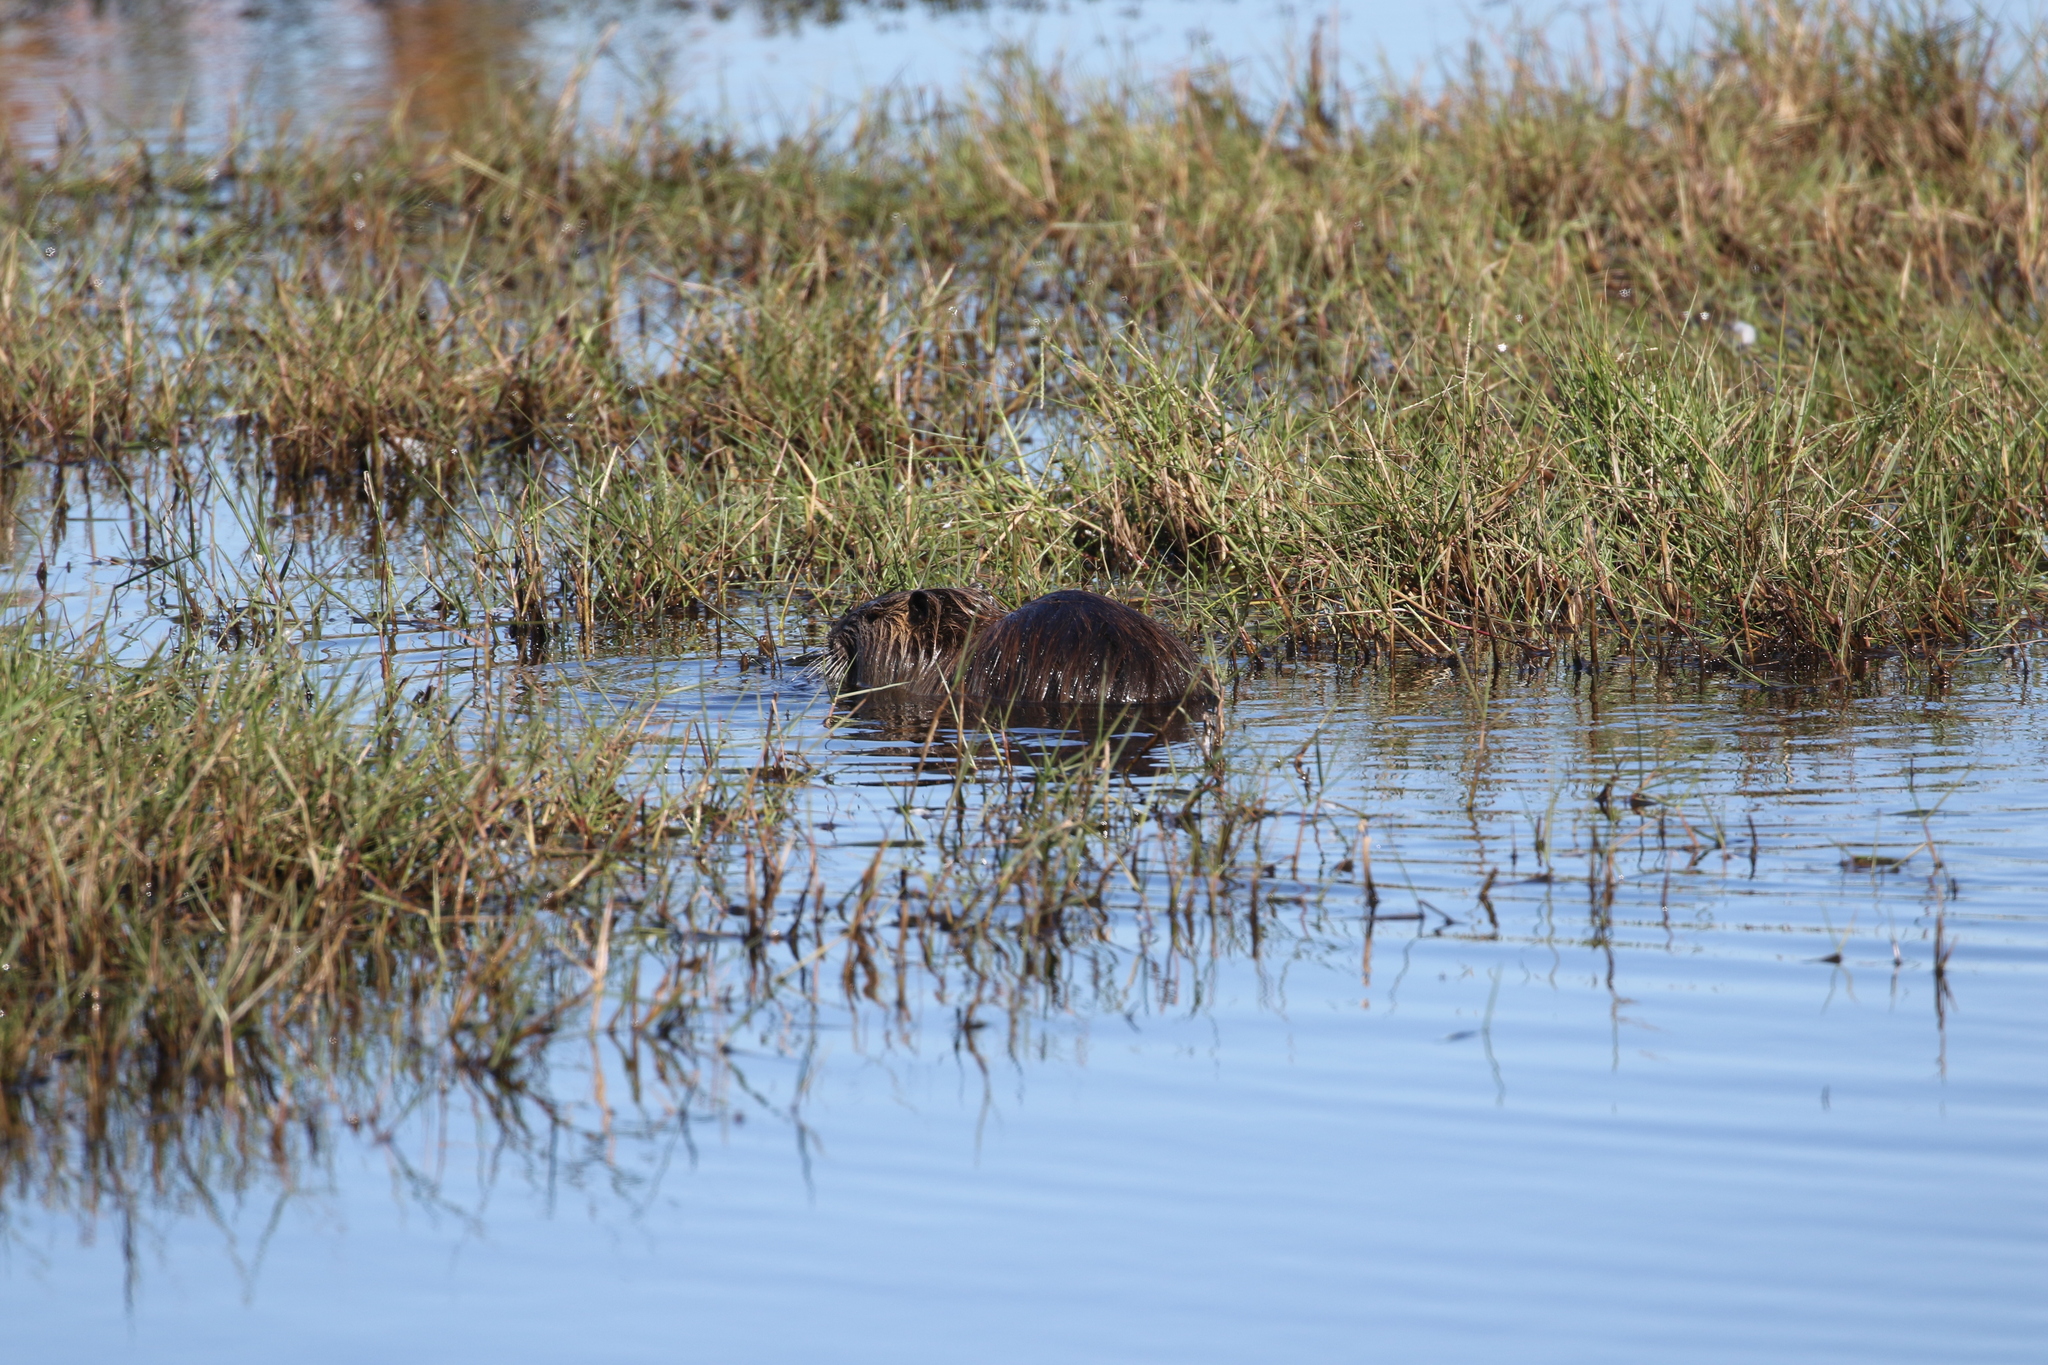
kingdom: Animalia
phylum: Chordata
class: Mammalia
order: Rodentia
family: Myocastoridae
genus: Myocastor
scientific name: Myocastor coypus
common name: Coypu
